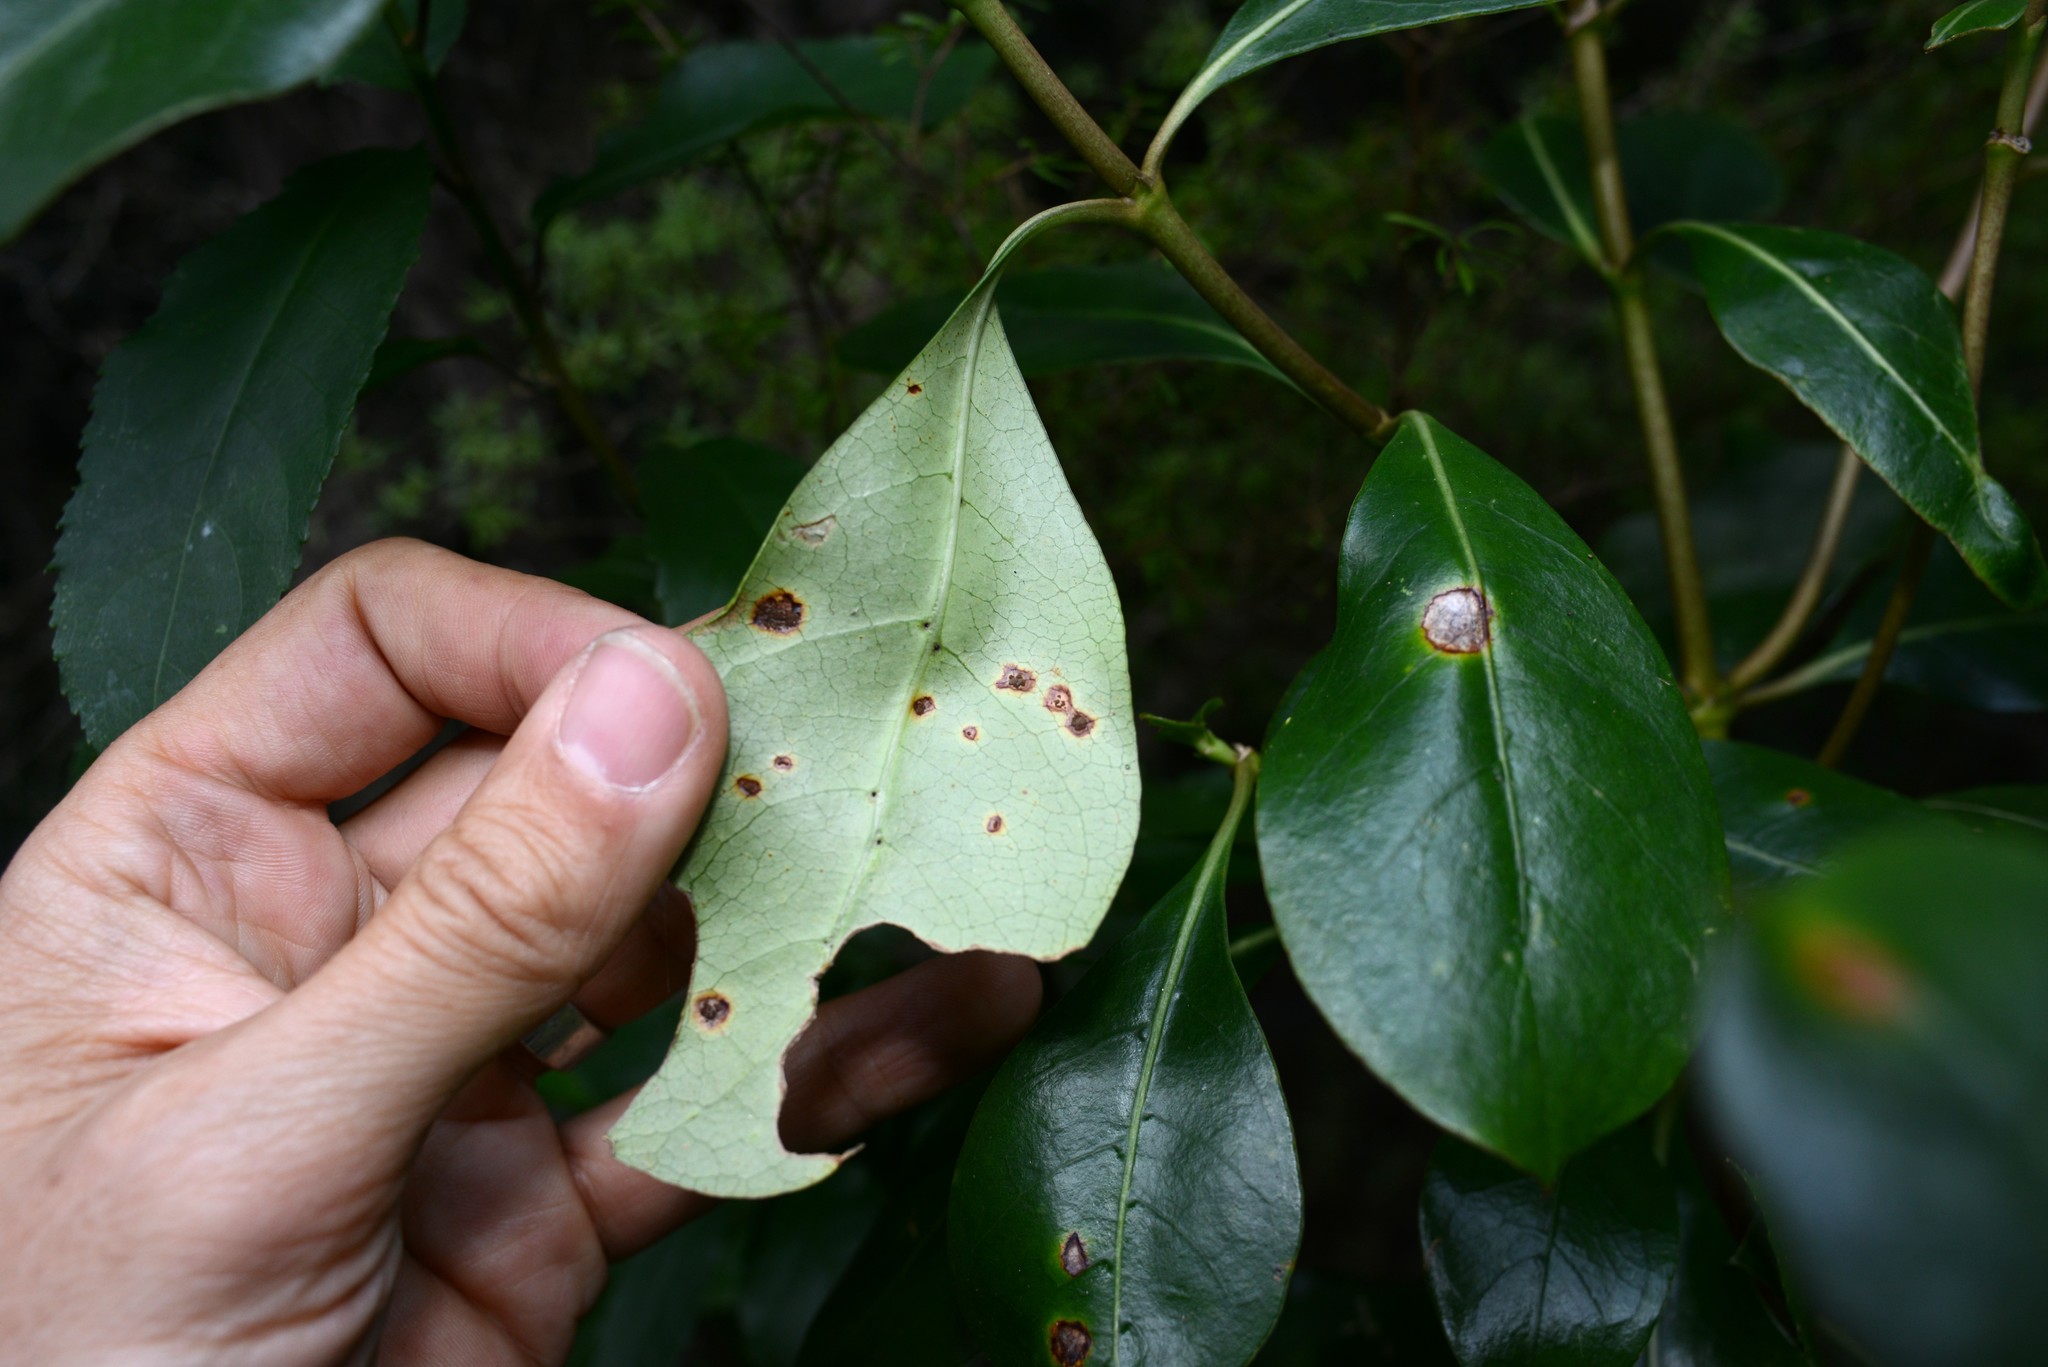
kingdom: Fungi
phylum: Basidiomycota
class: Pucciniomycetes
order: Pucciniales
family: Pucciniaceae
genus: Puccinia
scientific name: Puccinia coprosmae
